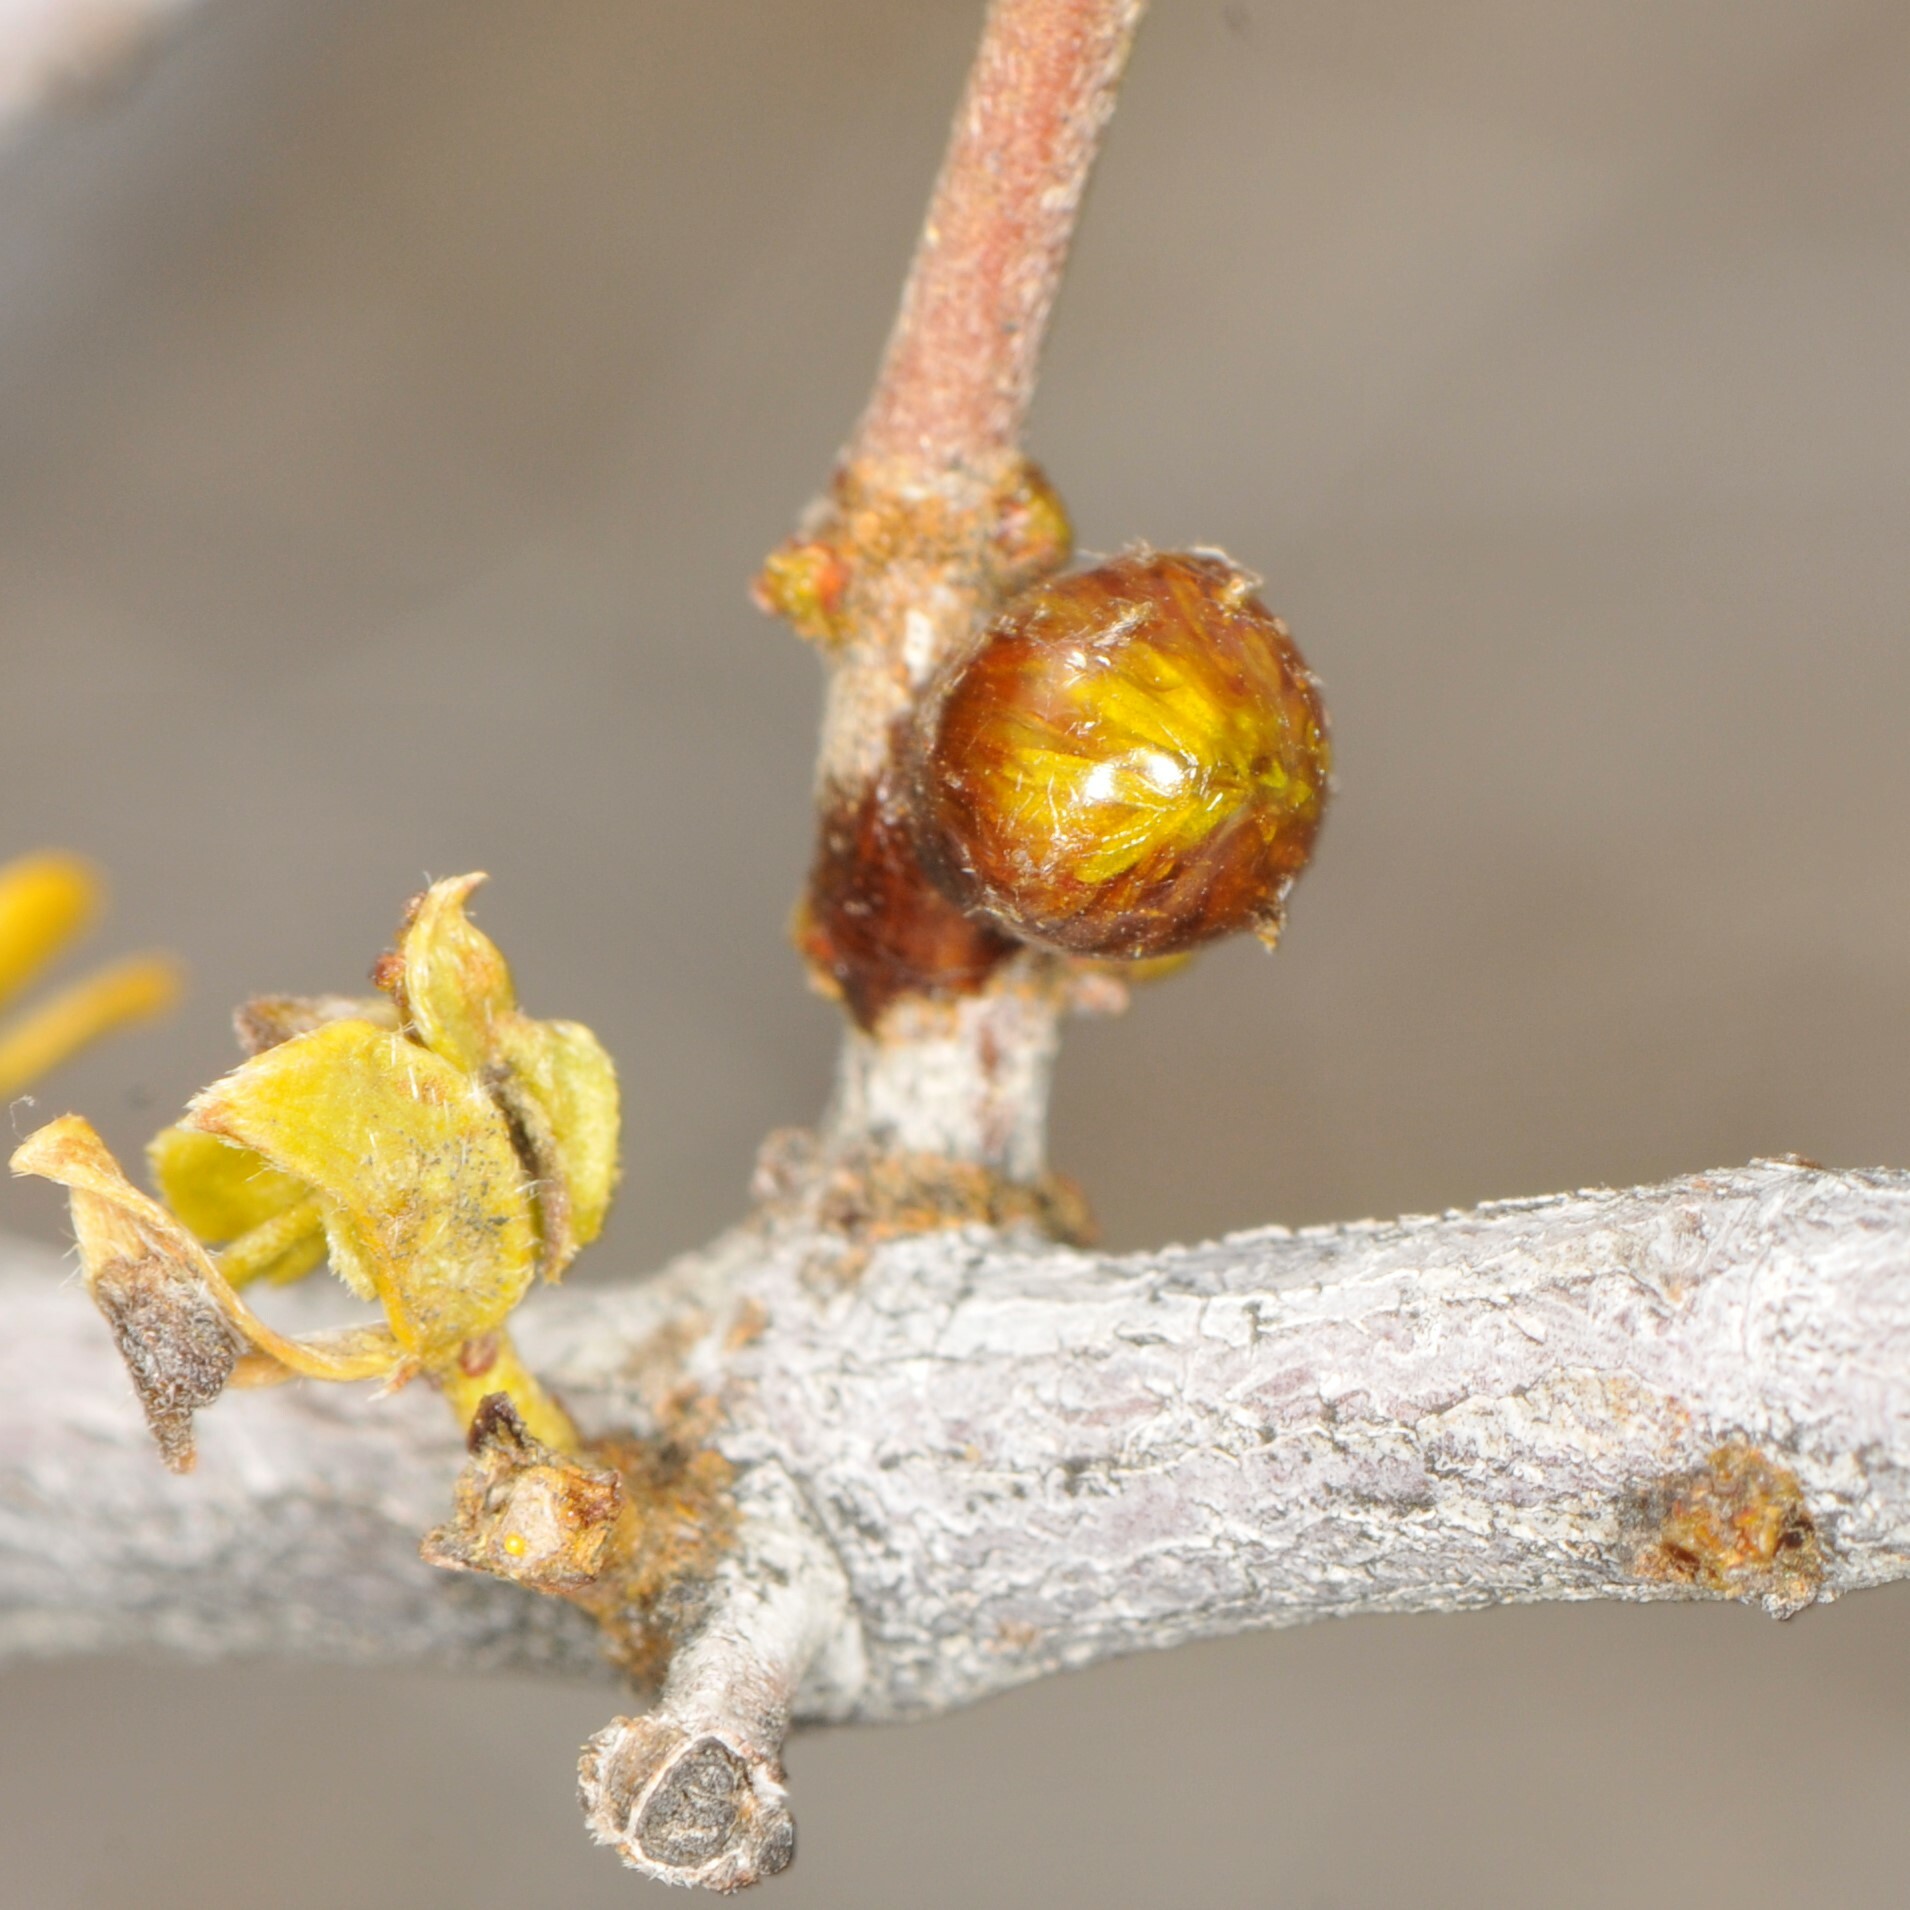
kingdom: Animalia
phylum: Arthropoda
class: Insecta
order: Diptera
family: Cecidomyiidae
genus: Asphondylia
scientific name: Asphondylia resinosa
